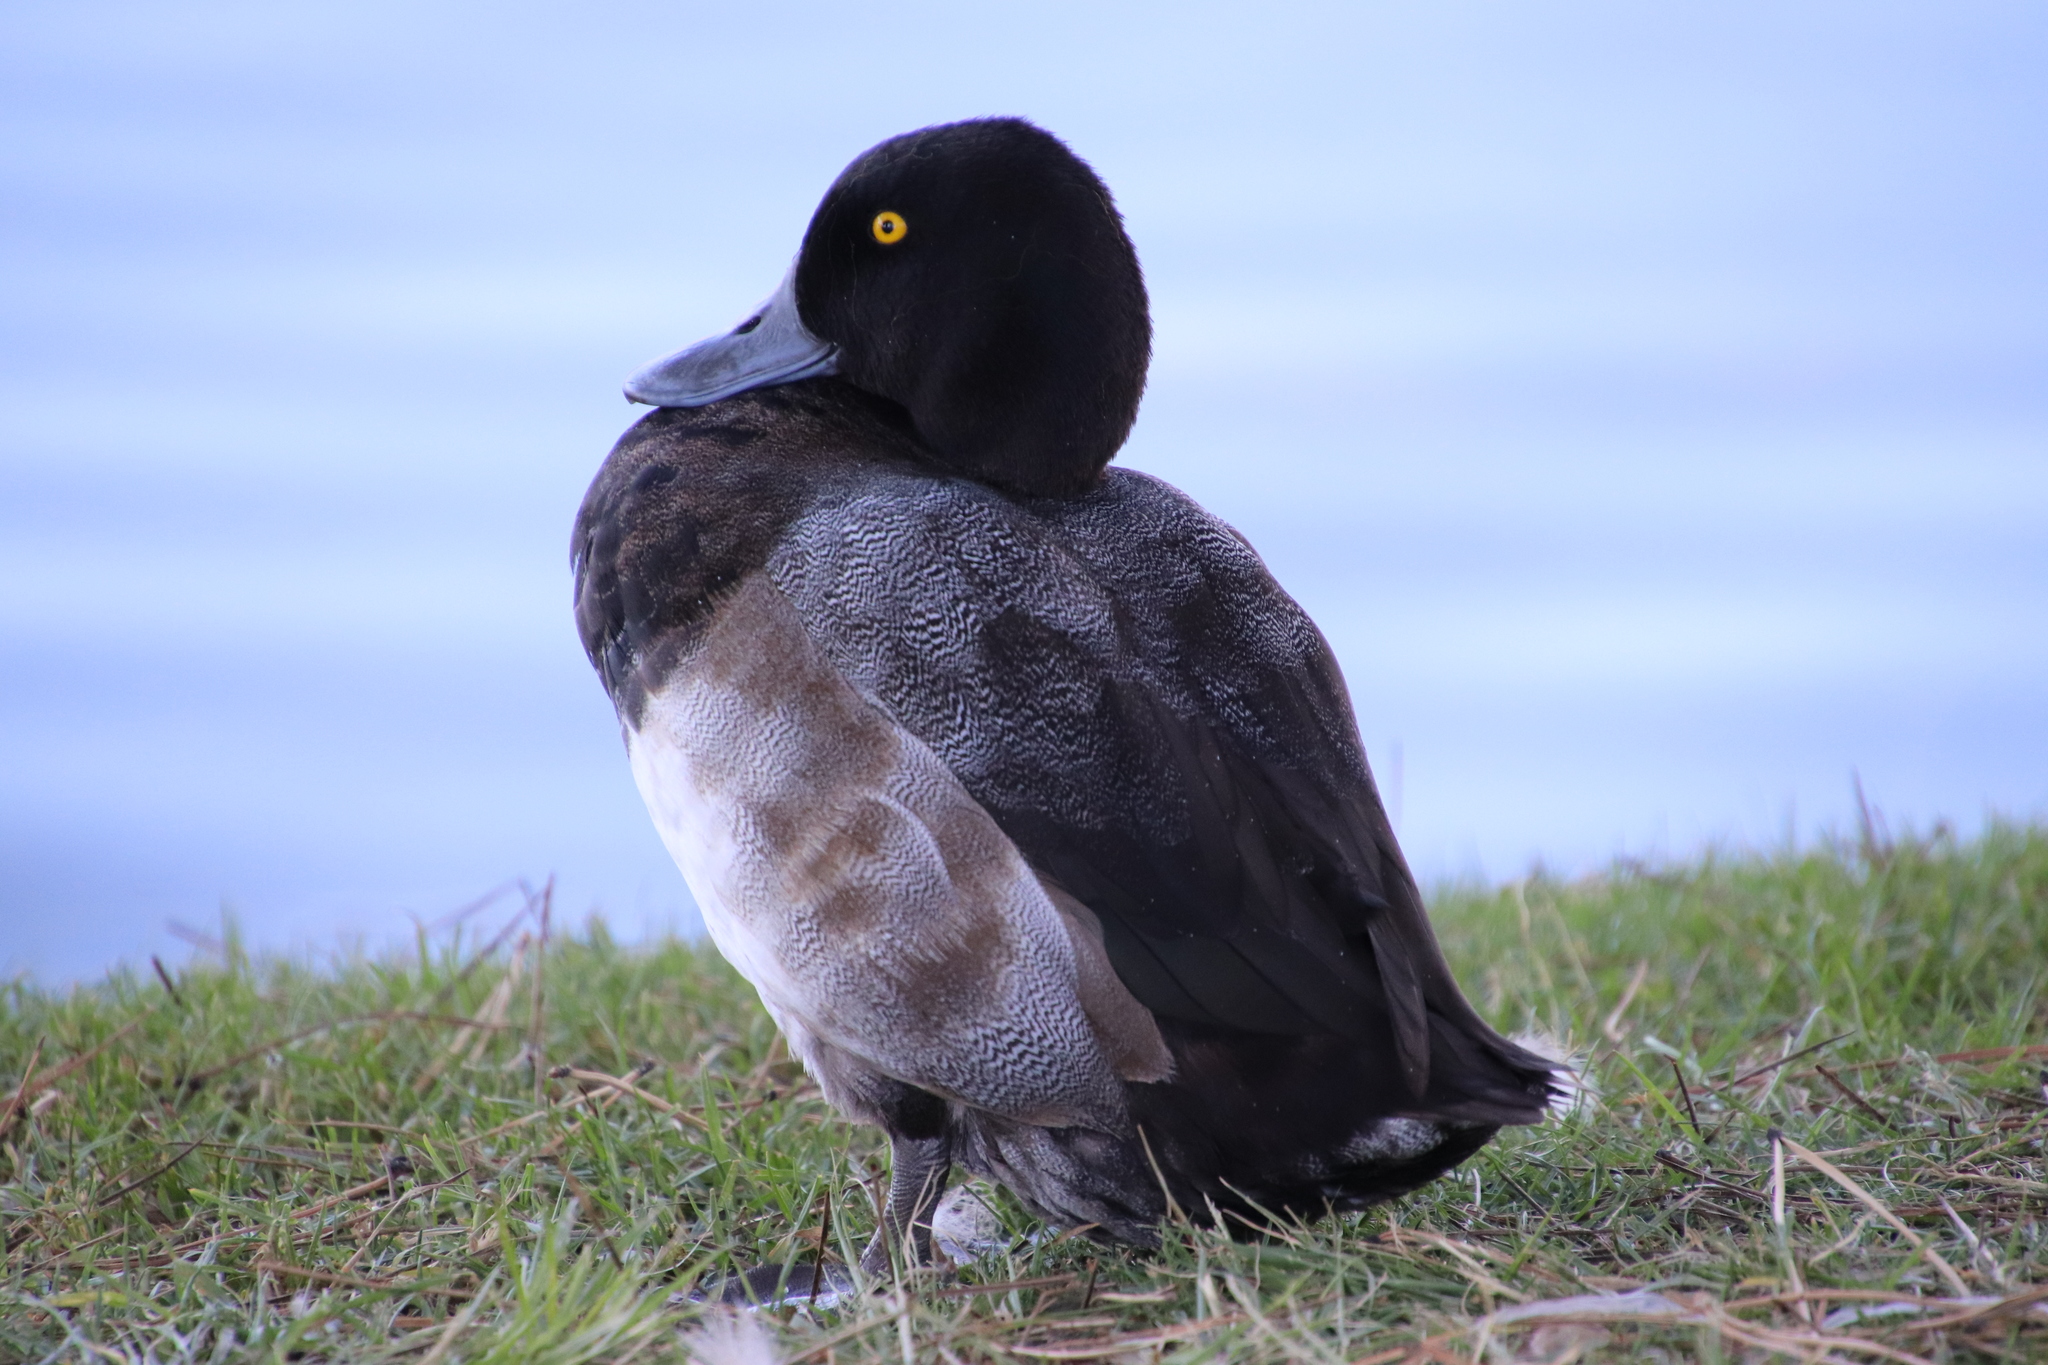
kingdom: Animalia
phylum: Chordata
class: Aves
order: Anseriformes
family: Anatidae
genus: Aythya
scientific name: Aythya marila
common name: Greater scaup
